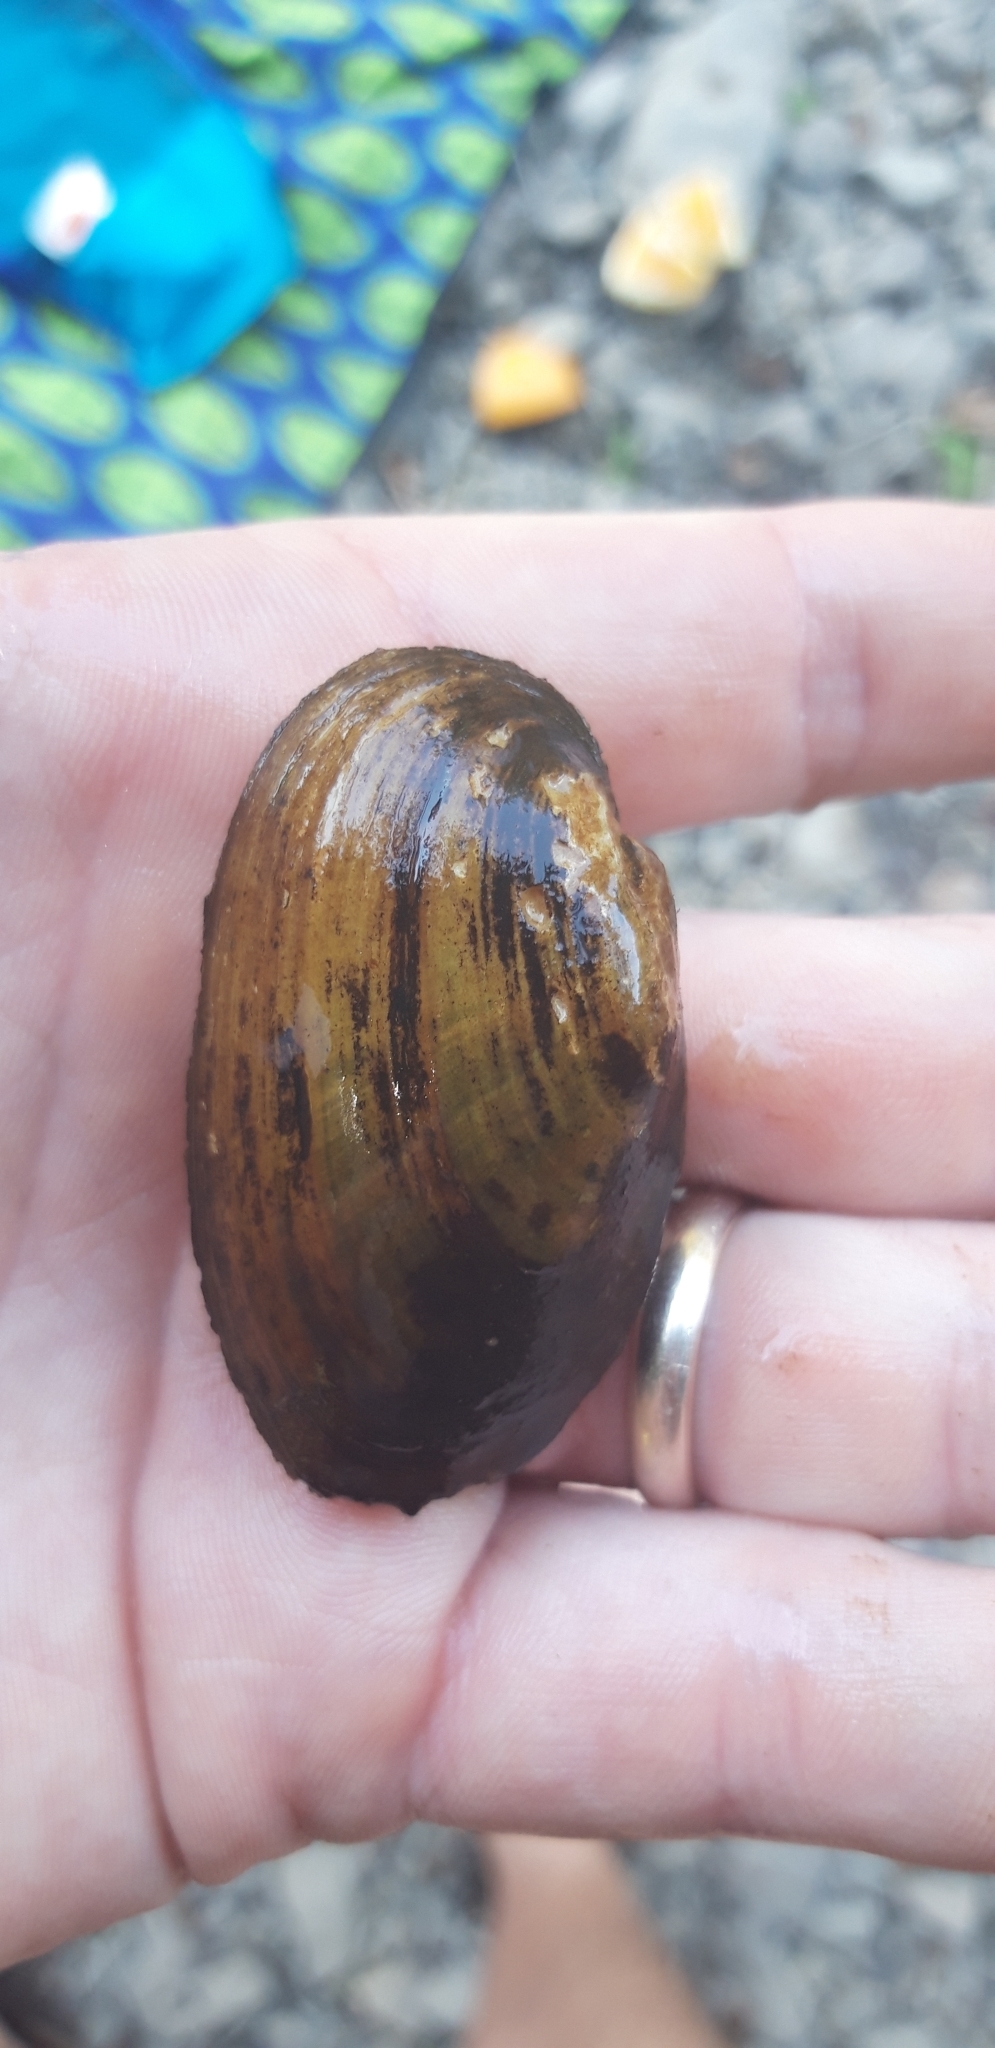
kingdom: Animalia
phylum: Mollusca
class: Bivalvia
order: Unionida
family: Unionidae
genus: Unio
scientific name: Unio crassus
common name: Thick shelled river mussel
